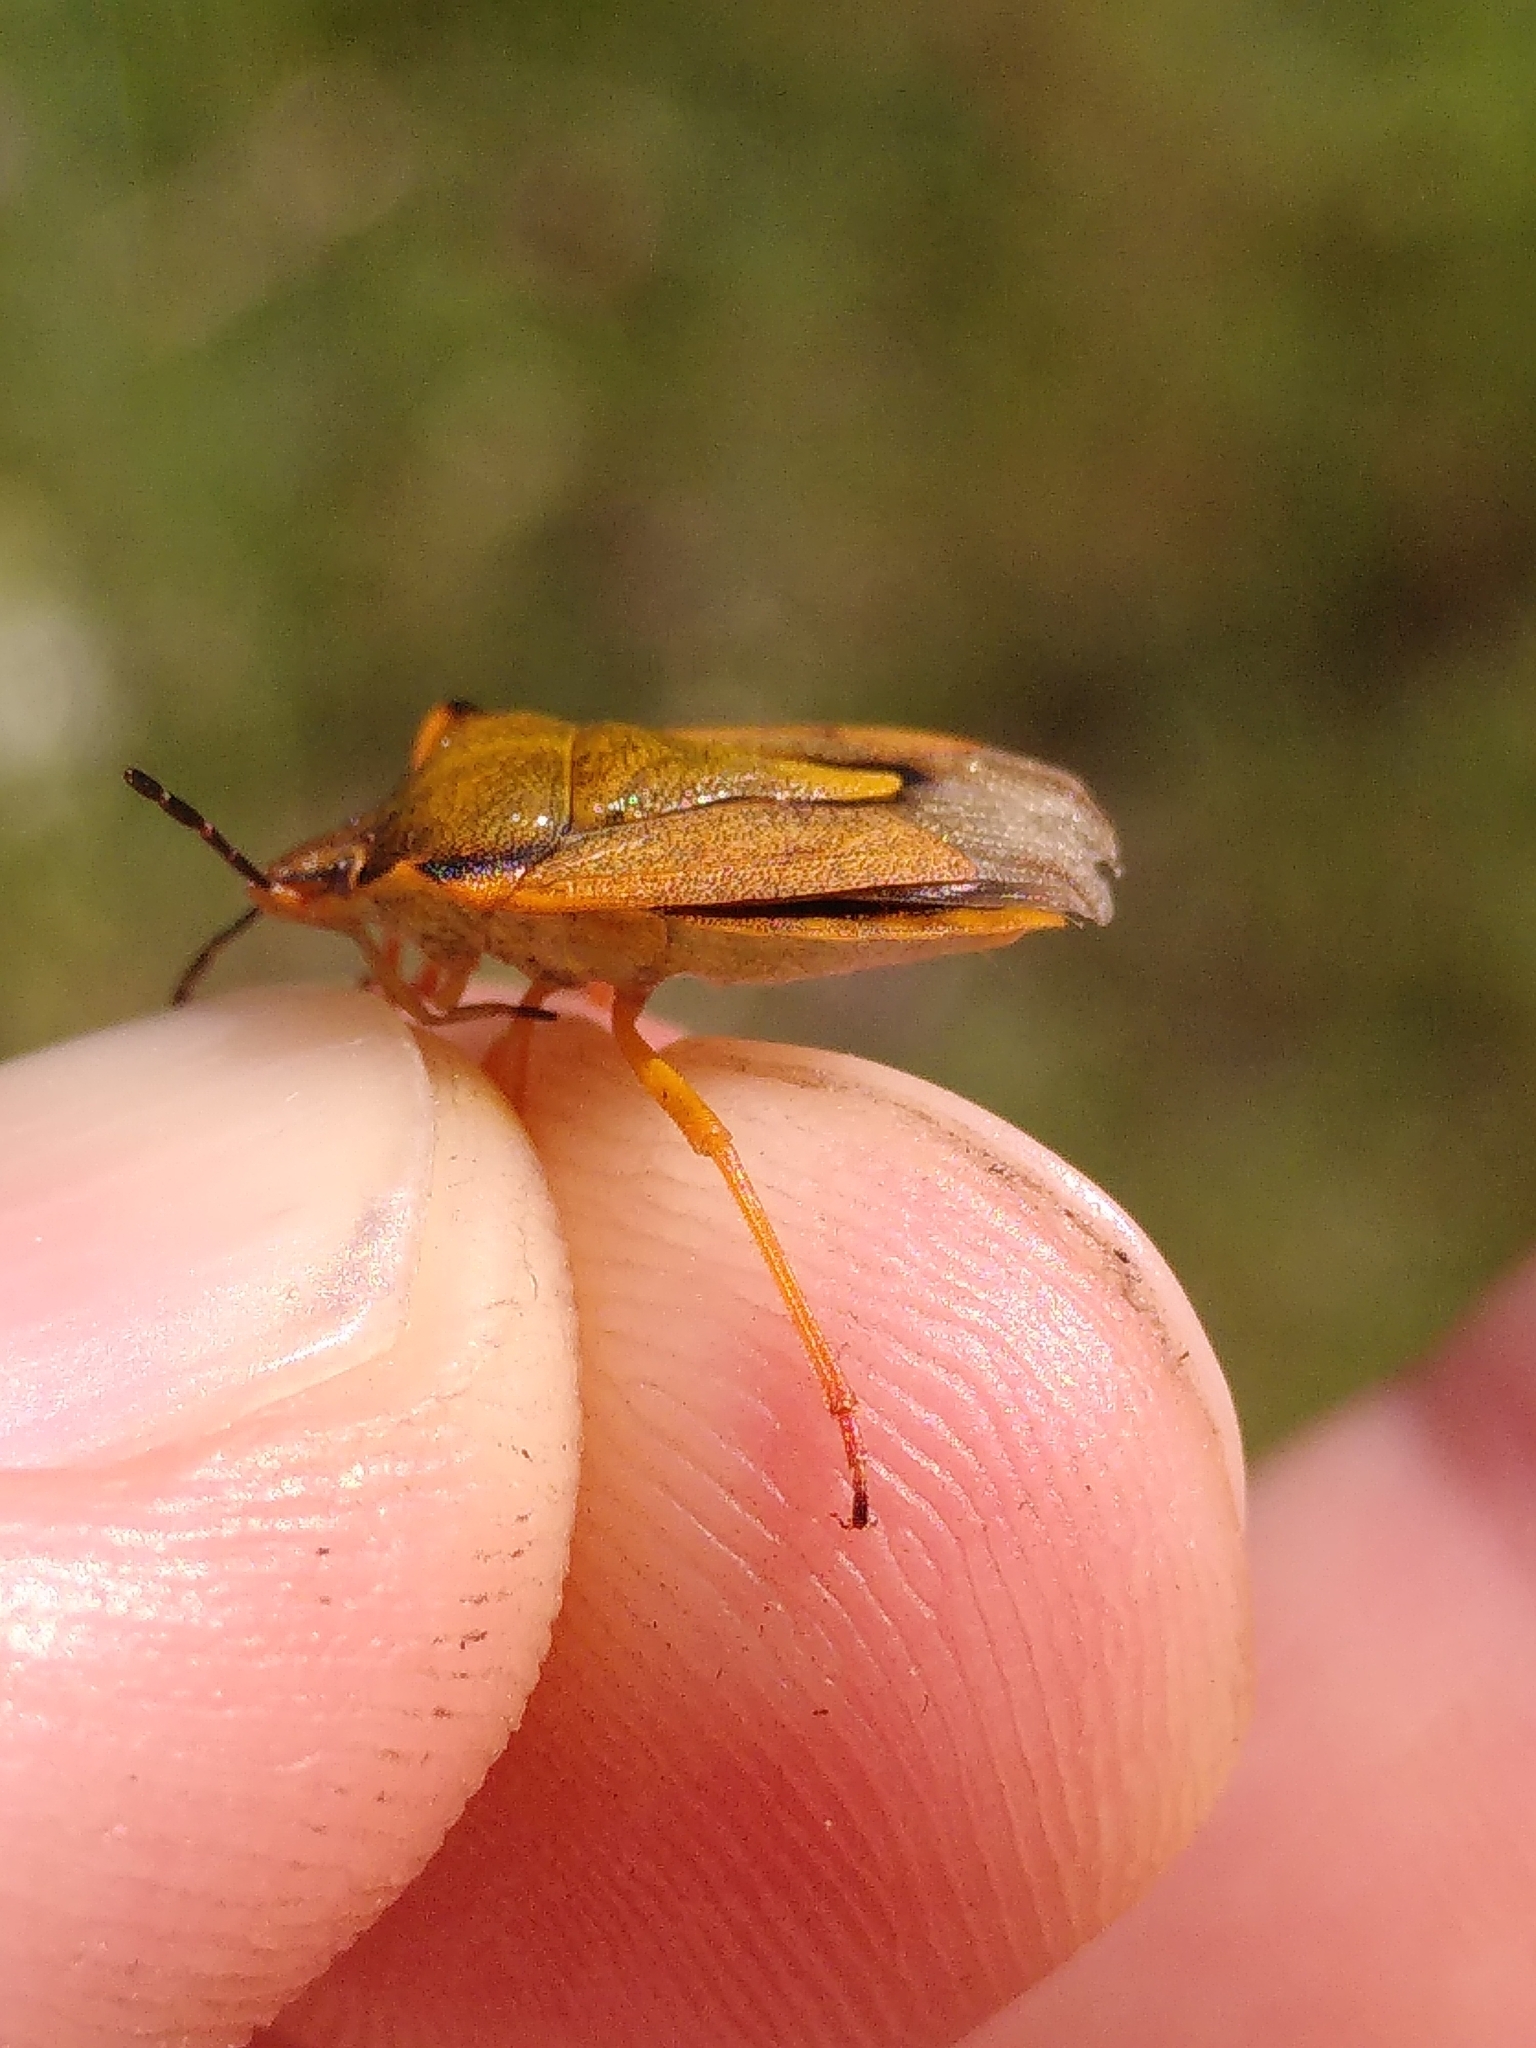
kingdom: Animalia
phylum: Arthropoda
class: Insecta
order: Hemiptera
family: Pentatomidae
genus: Carpocoris
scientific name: Carpocoris mediterraneus
